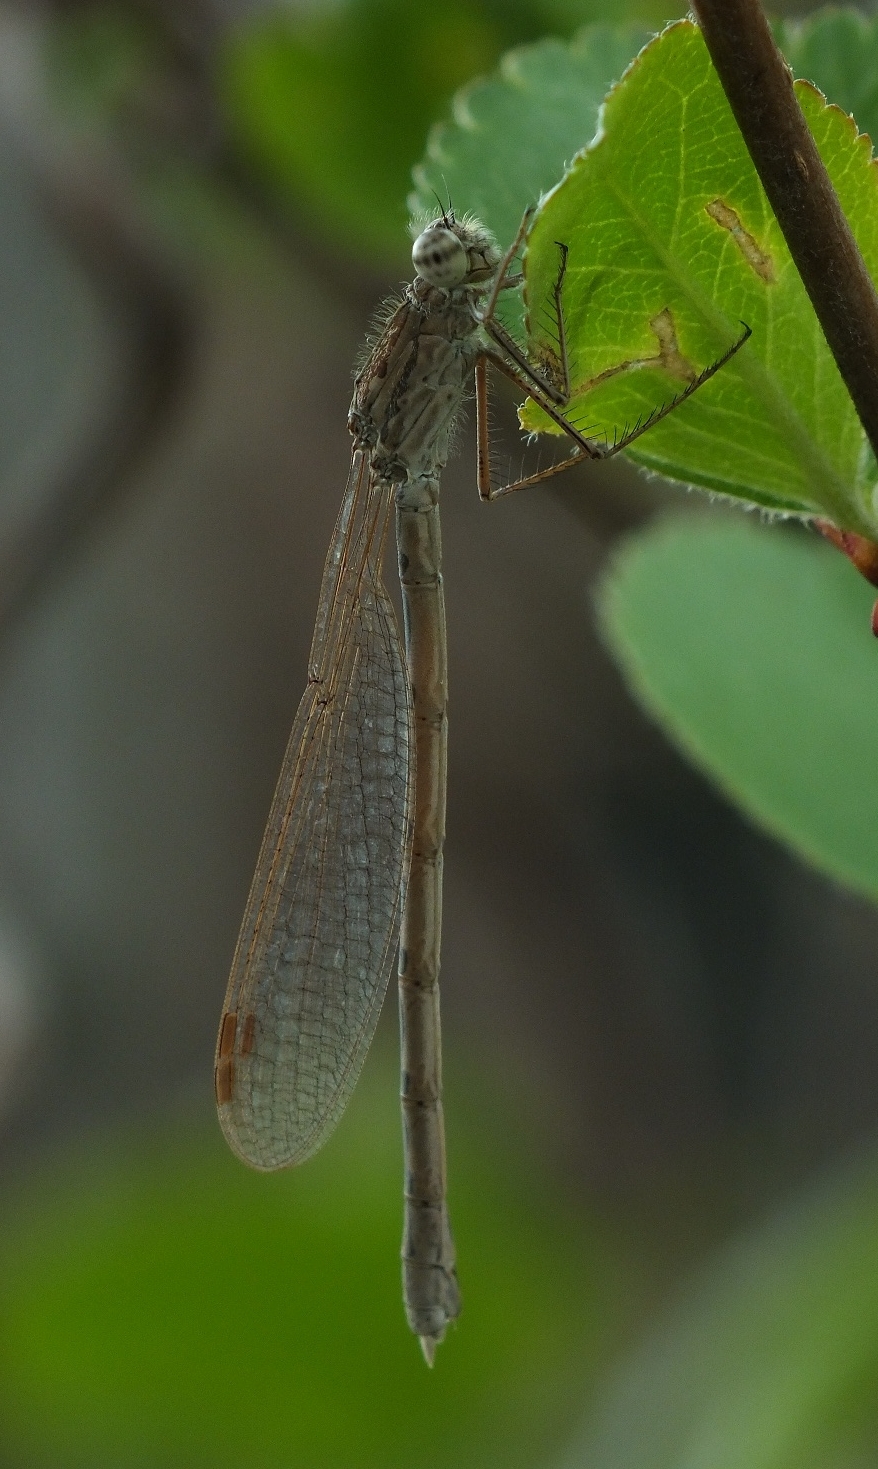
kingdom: Animalia
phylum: Arthropoda
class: Insecta
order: Odonata
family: Lestidae
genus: Sympecma
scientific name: Sympecma paedisca
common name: Siberian winter damsel
